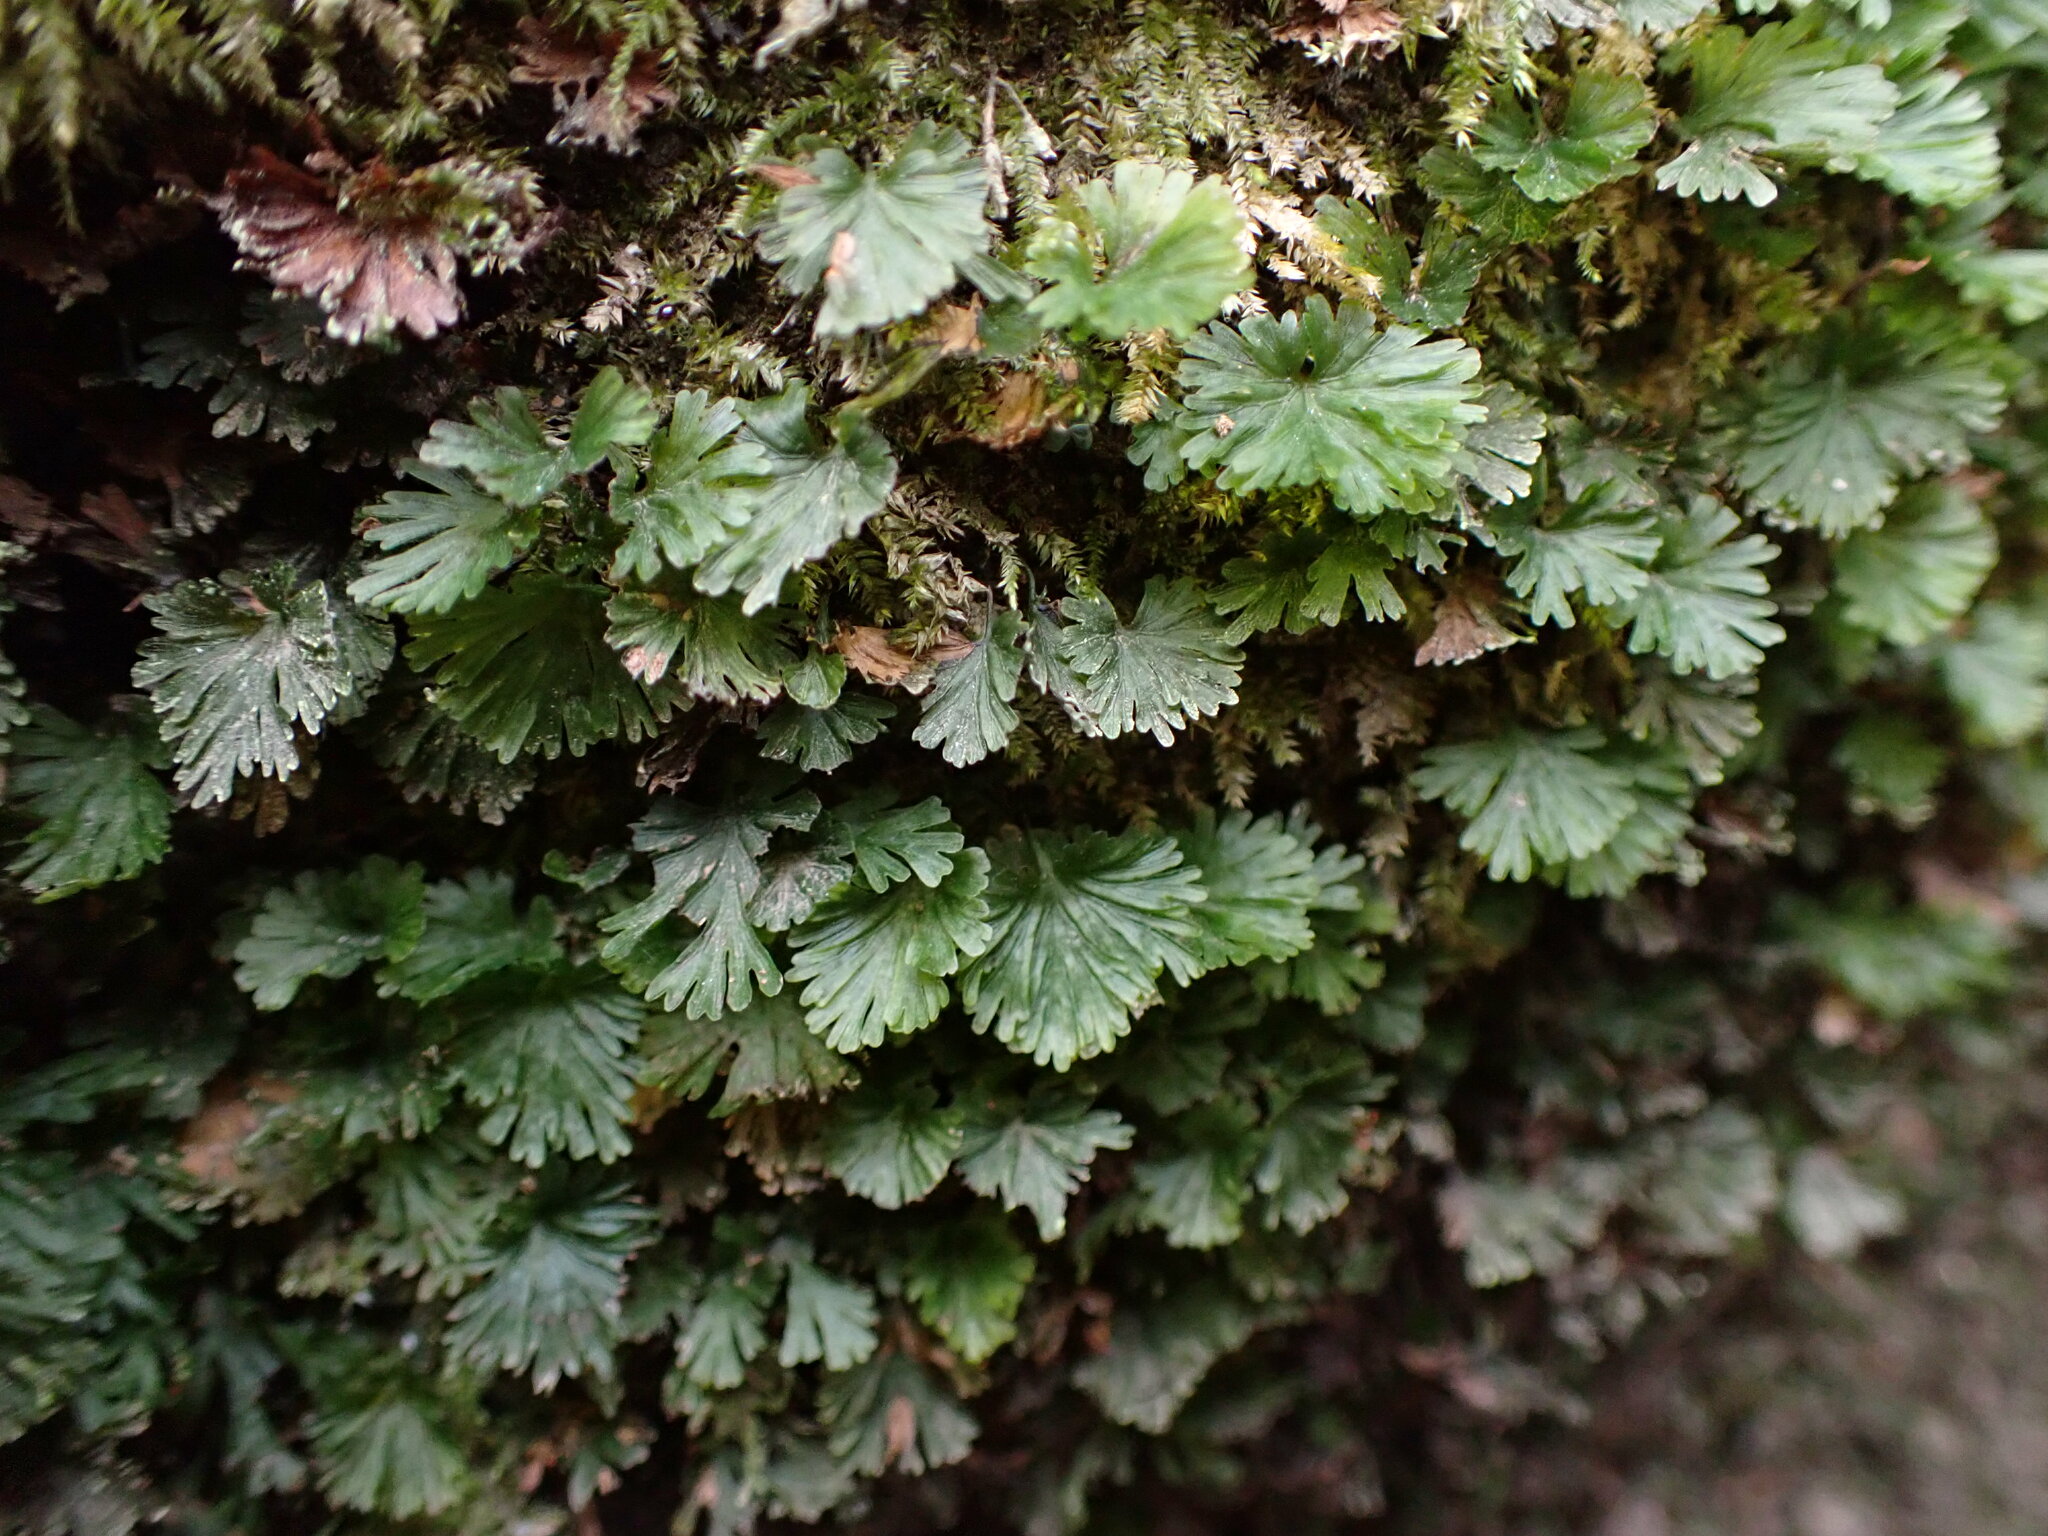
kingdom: Plantae
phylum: Tracheophyta
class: Polypodiopsida
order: Hymenophyllales
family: Hymenophyllaceae
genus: Crepidomanes
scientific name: Crepidomanes parvulum
